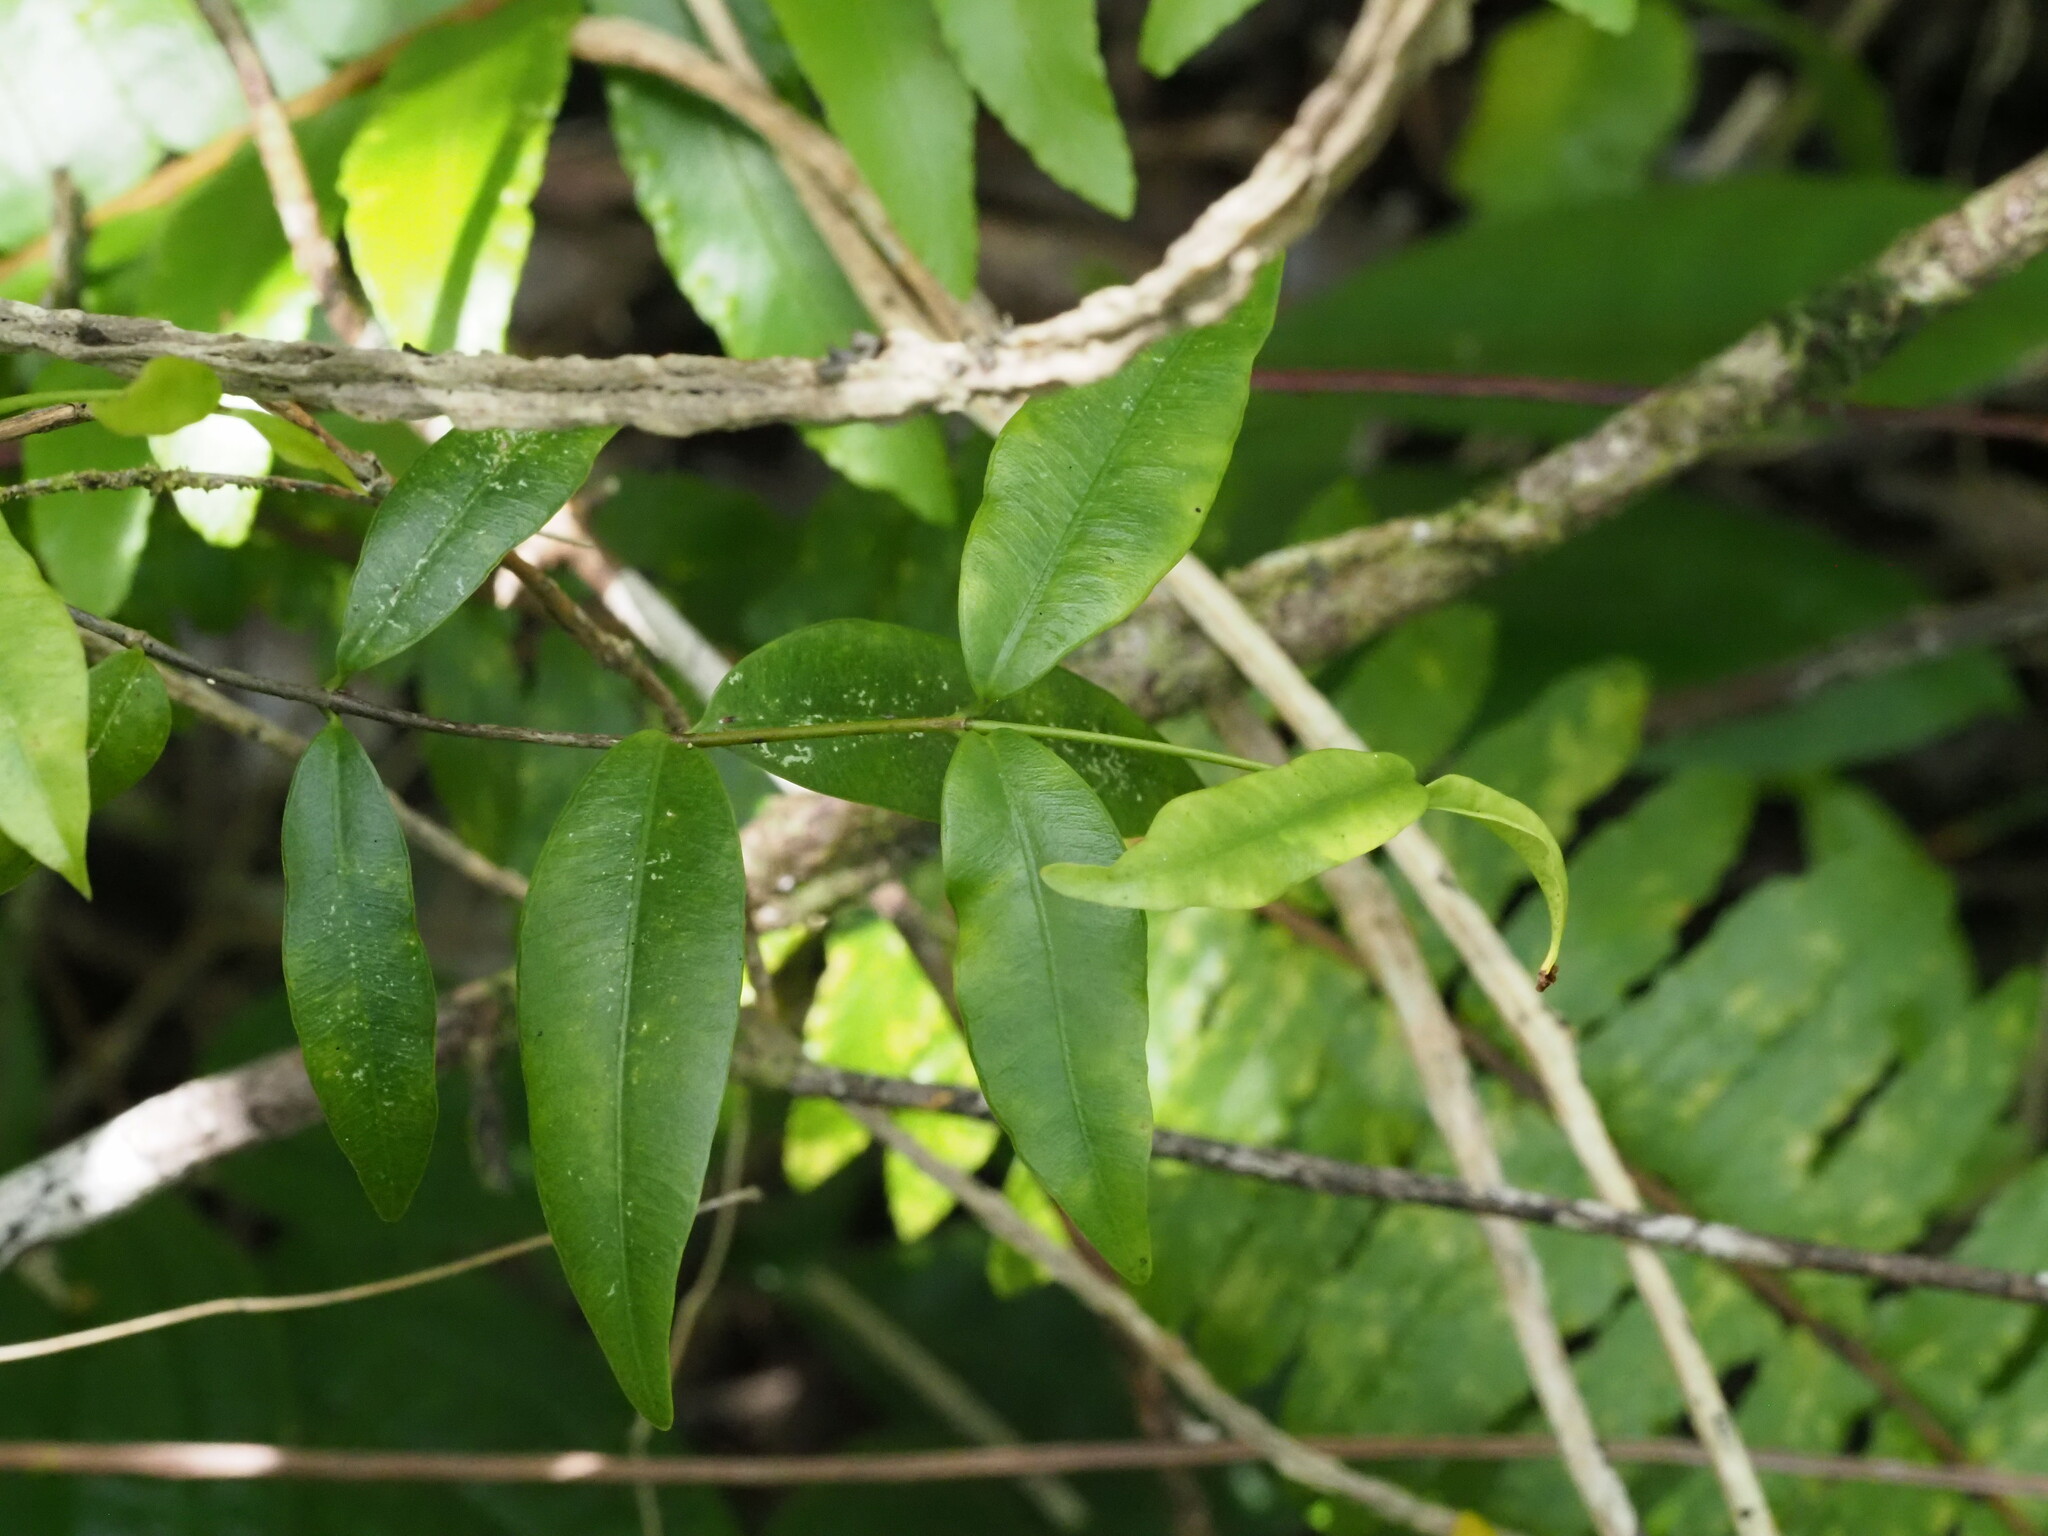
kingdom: Plantae
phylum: Tracheophyta
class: Magnoliopsida
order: Gentianales
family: Apocynaceae
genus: Alyxia
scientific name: Alyxia stellata
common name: Maile
